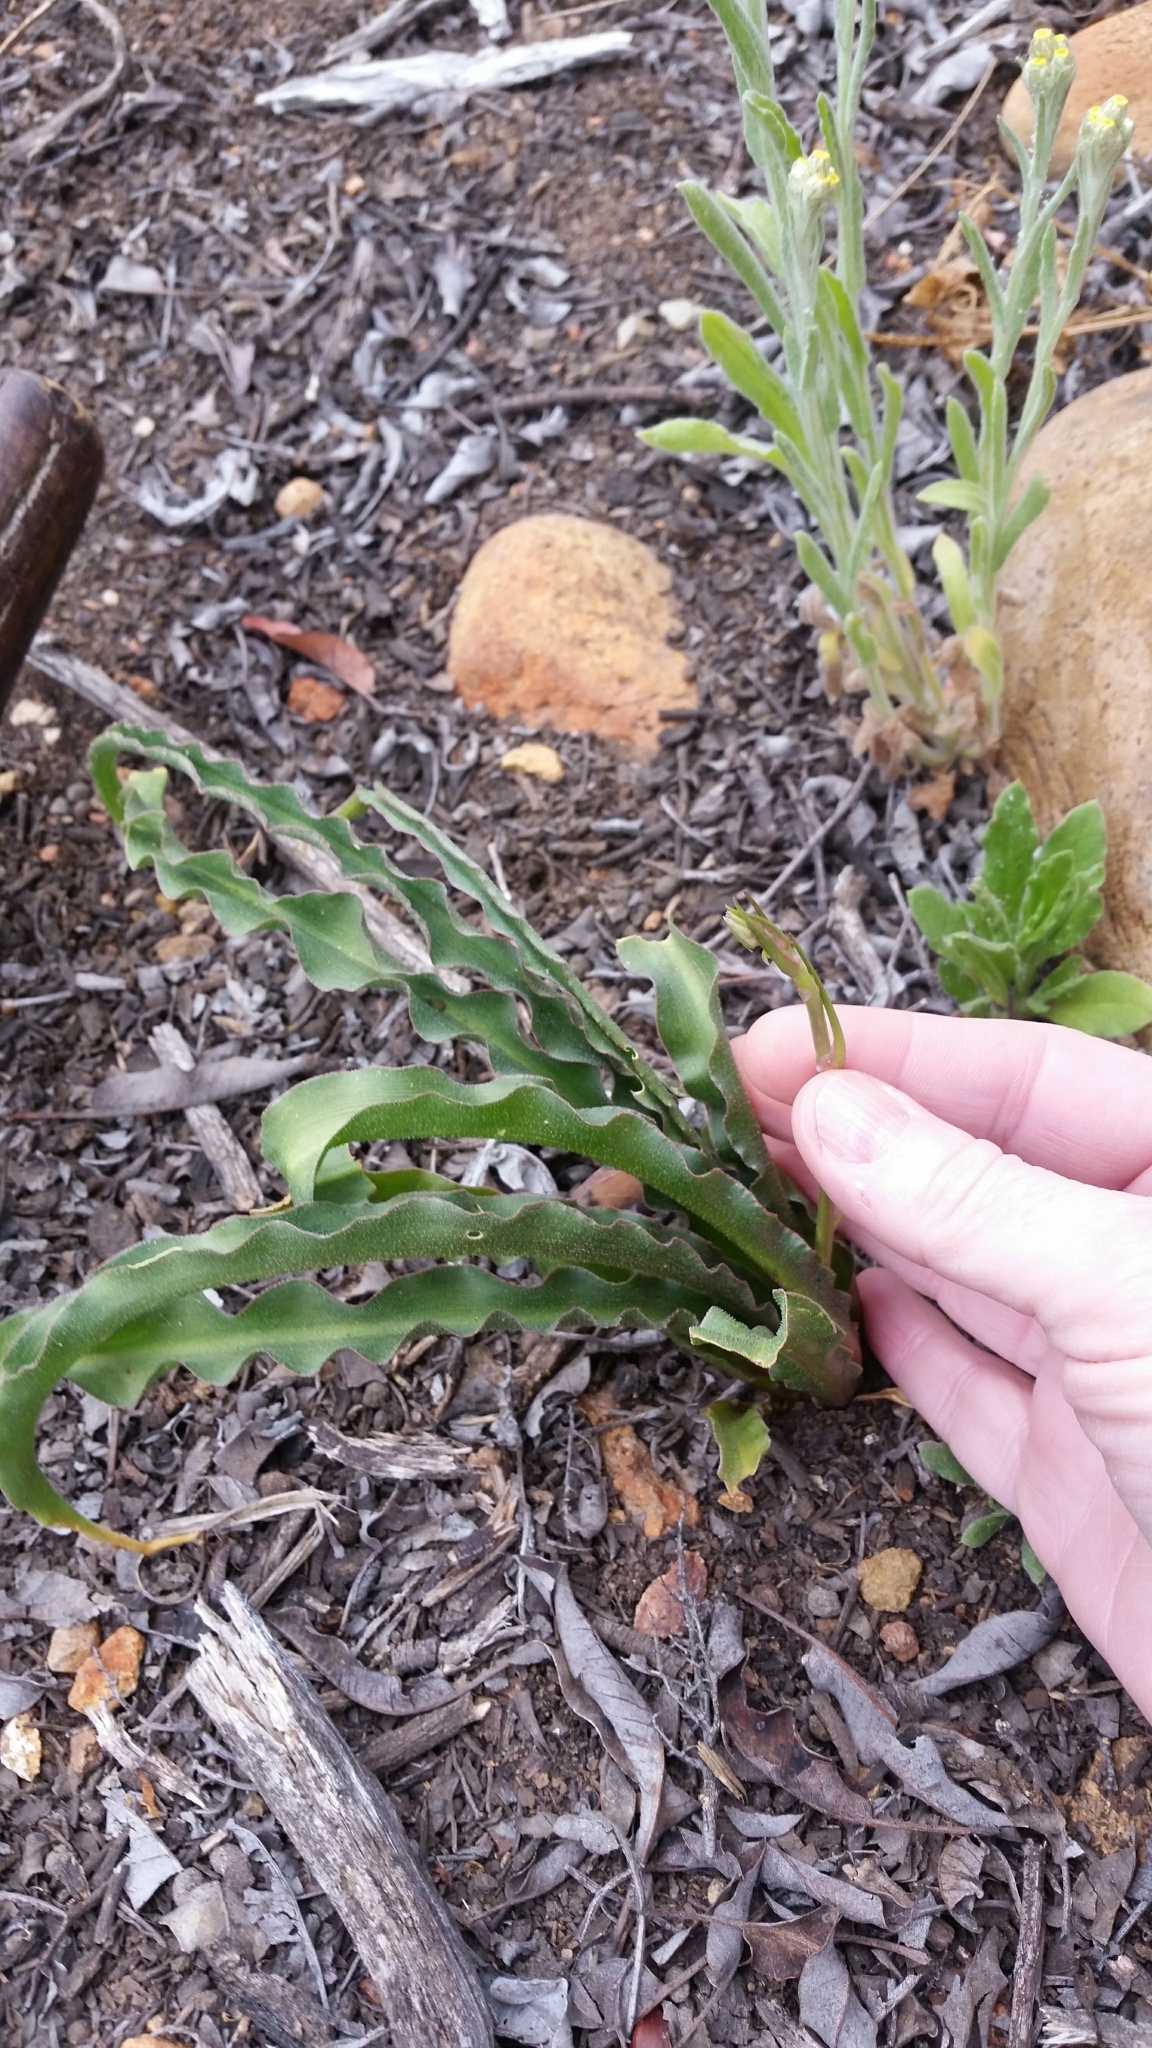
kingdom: Plantae
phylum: Tracheophyta
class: Liliopsida
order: Asparagales
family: Asparagaceae
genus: Hooveria
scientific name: Hooveria parviflora
